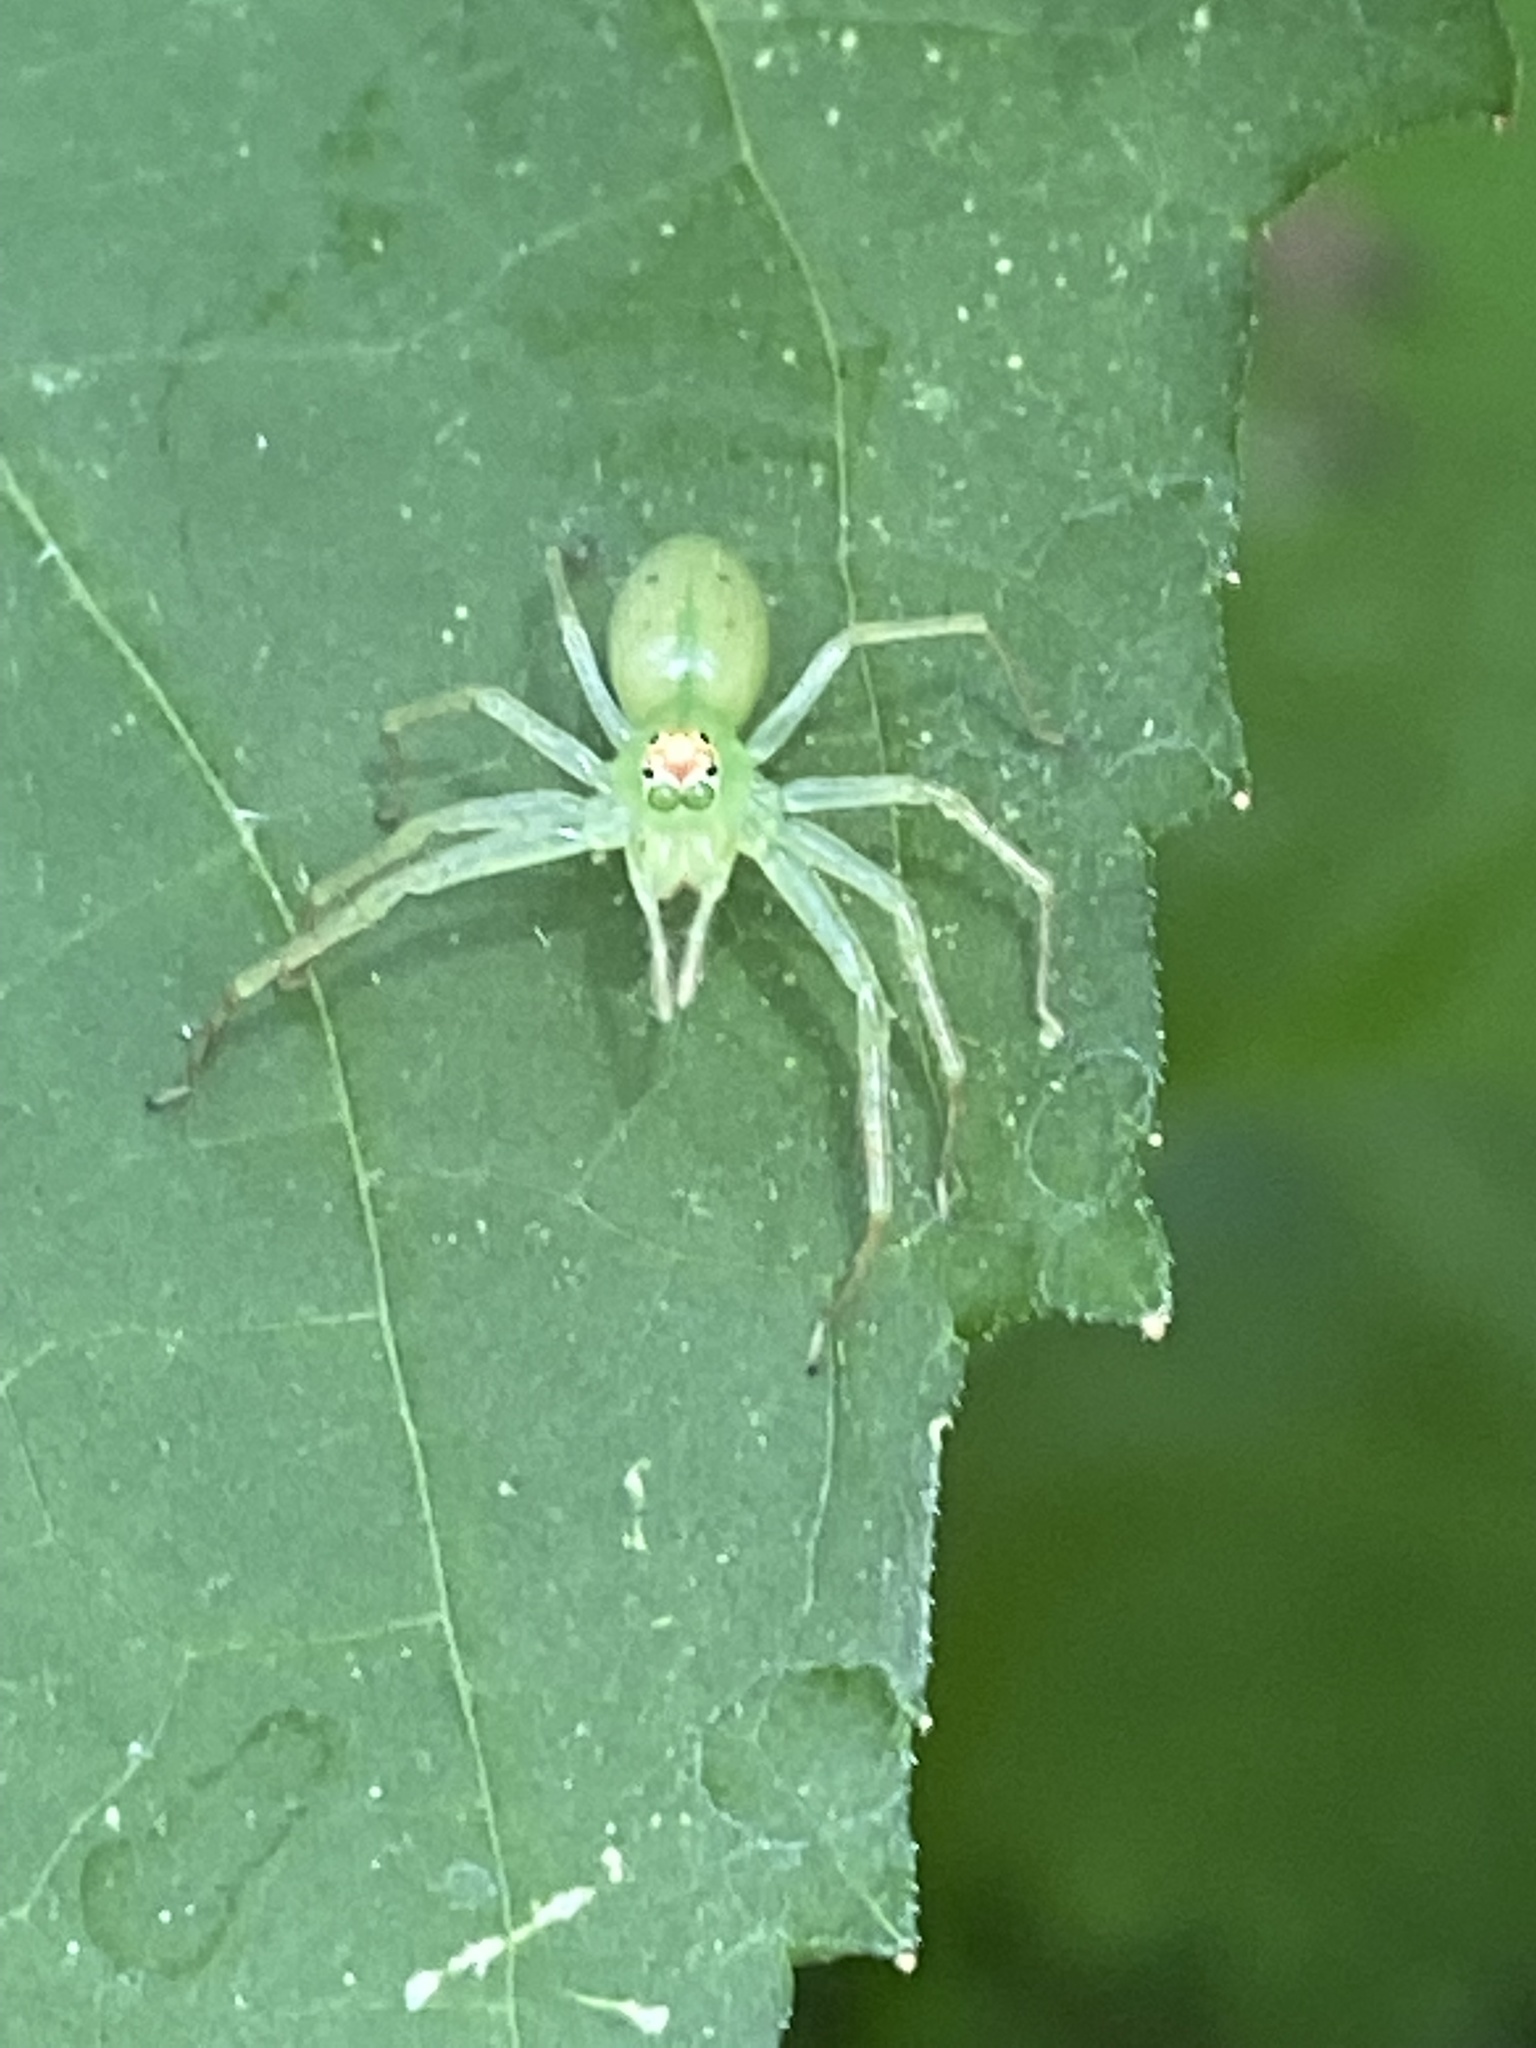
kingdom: Animalia
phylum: Arthropoda
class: Arachnida
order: Araneae
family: Salticidae
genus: Lyssomanes
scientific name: Lyssomanes viridis
